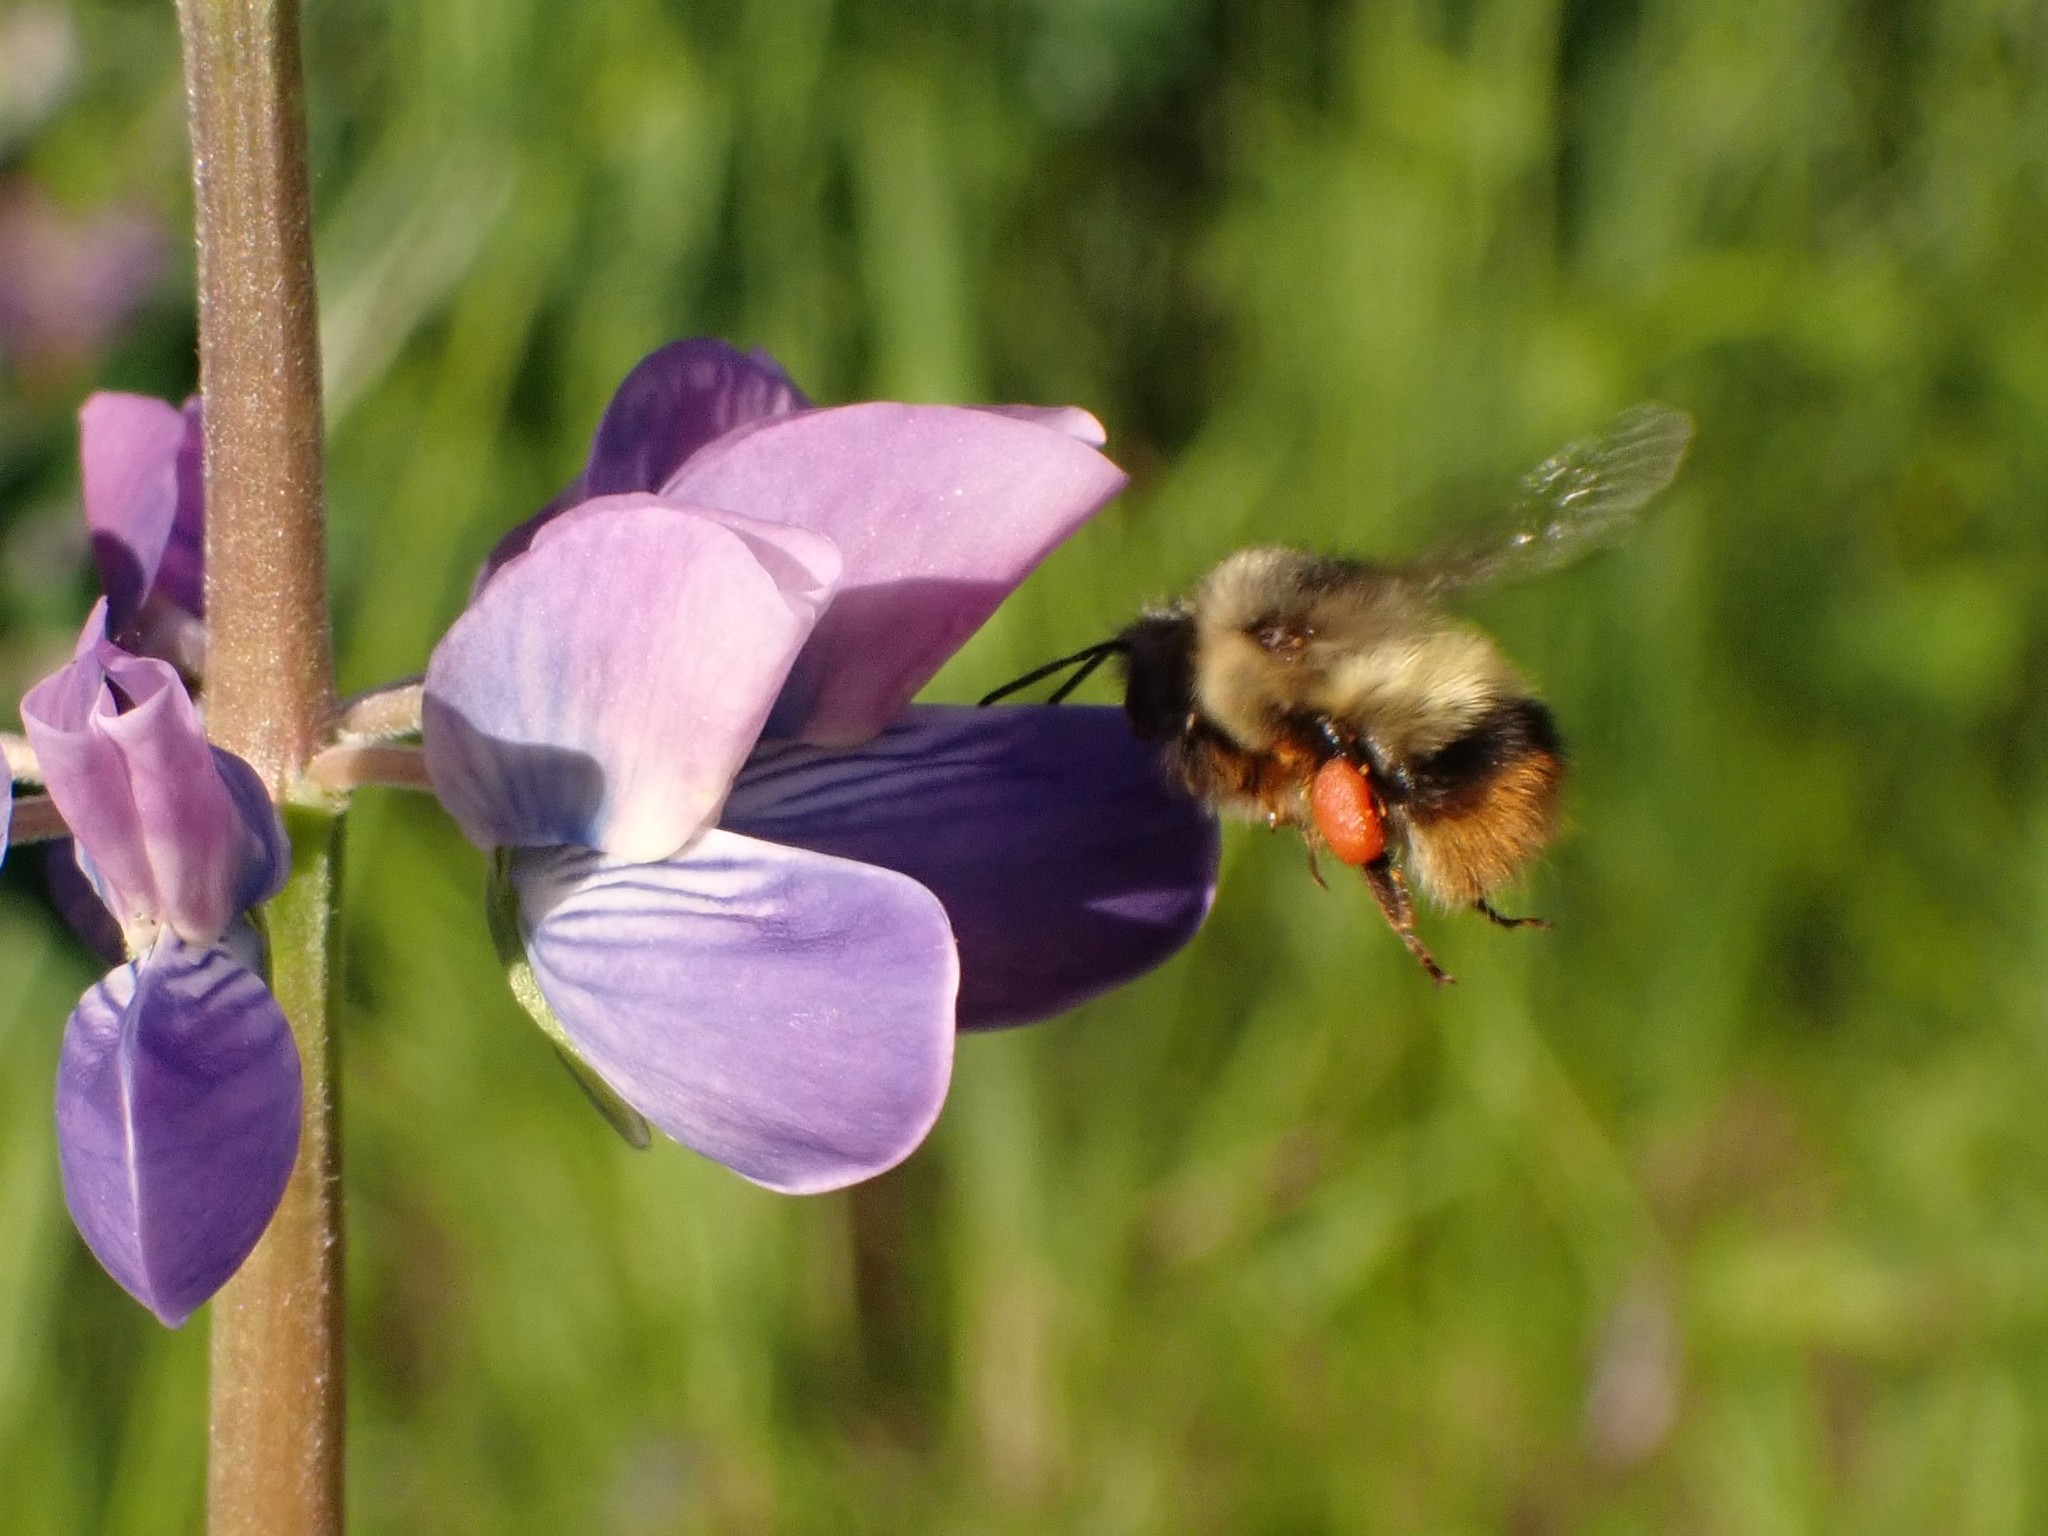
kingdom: Animalia
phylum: Arthropoda
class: Insecta
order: Hymenoptera
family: Apidae
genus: Bombus
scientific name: Bombus mixtus
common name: Fuzzy-horned bumble bee
